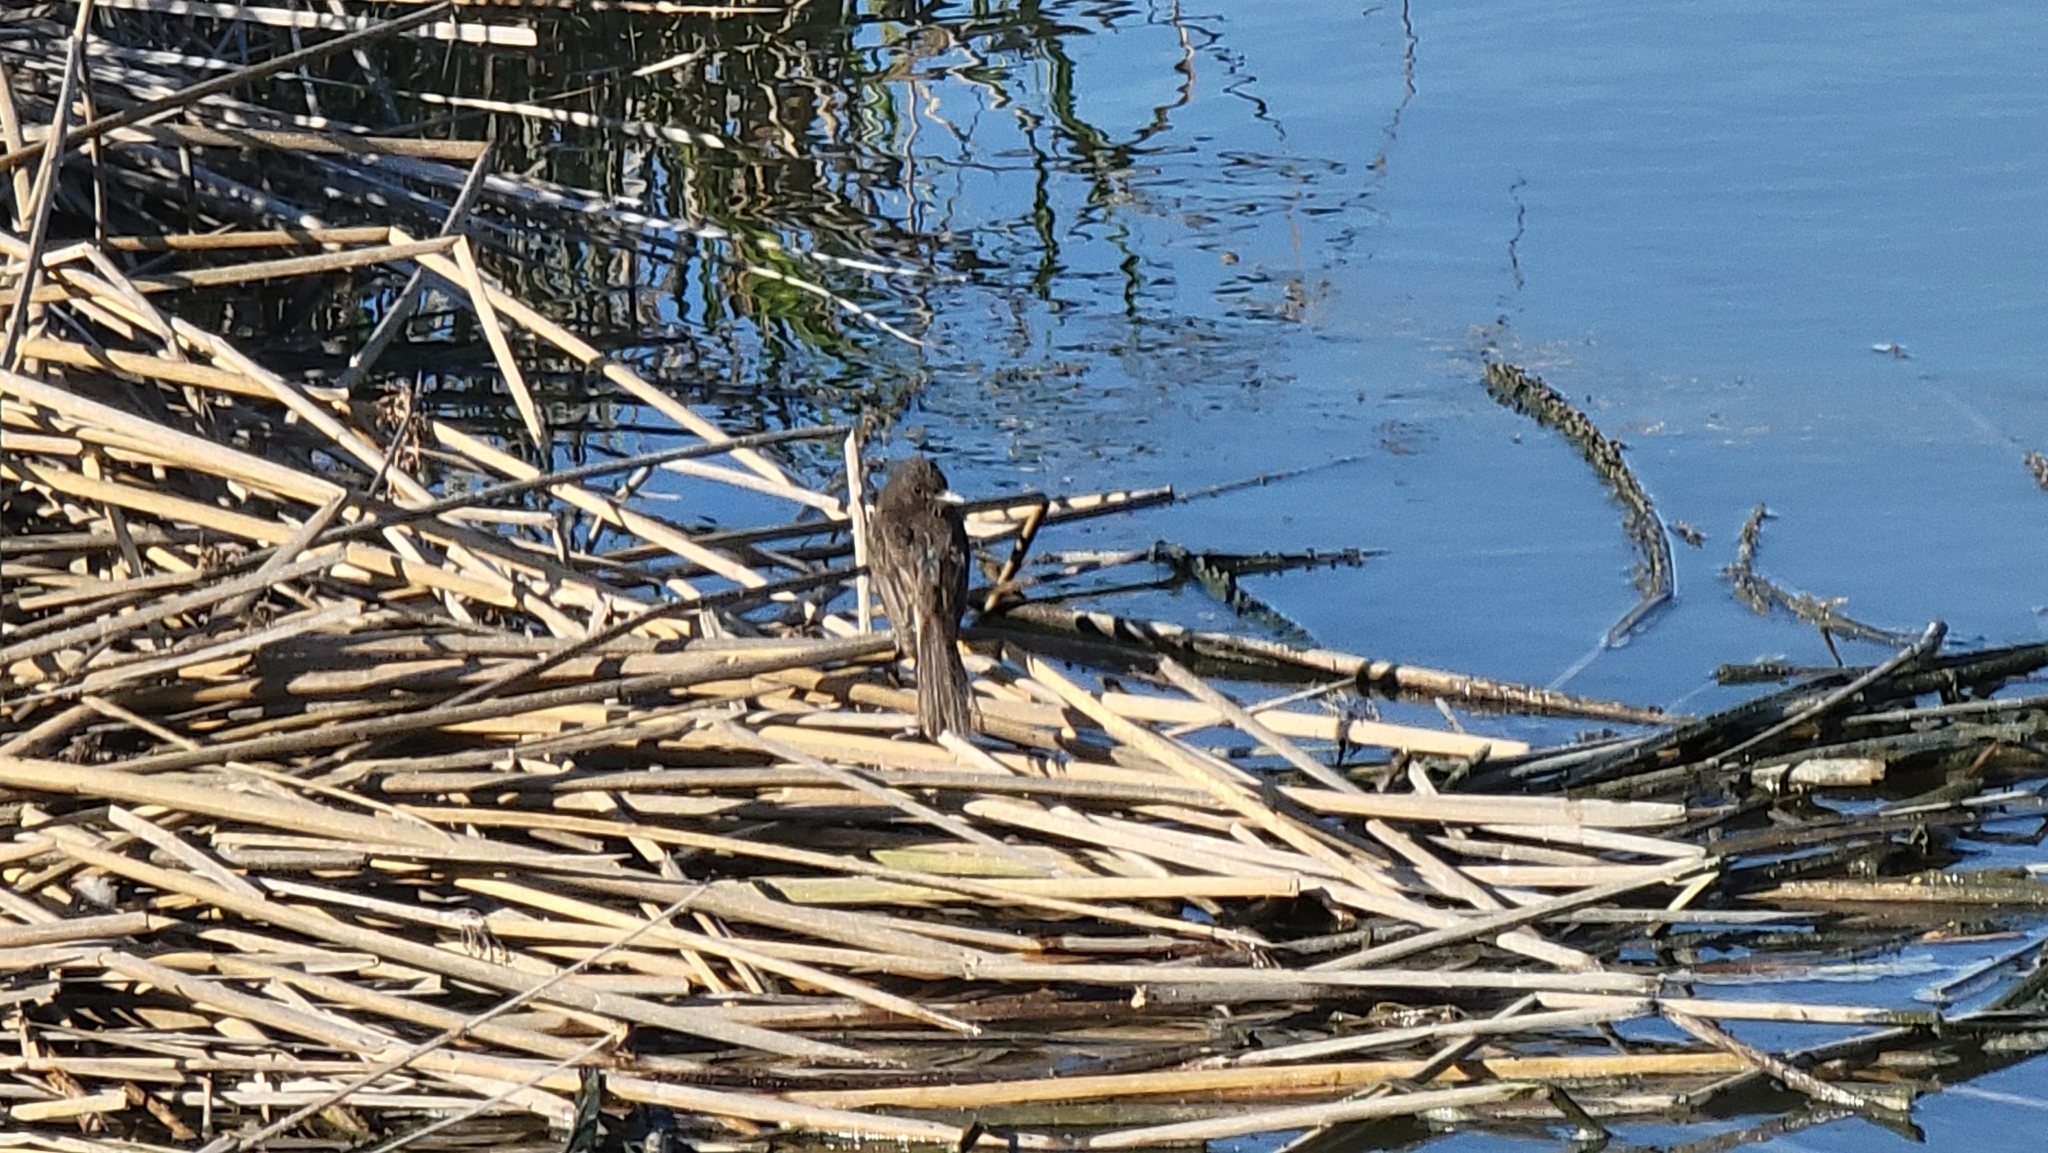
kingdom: Animalia
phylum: Chordata
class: Aves
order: Passeriformes
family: Tyrannidae
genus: Sayornis
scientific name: Sayornis nigricans
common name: Black phoebe
